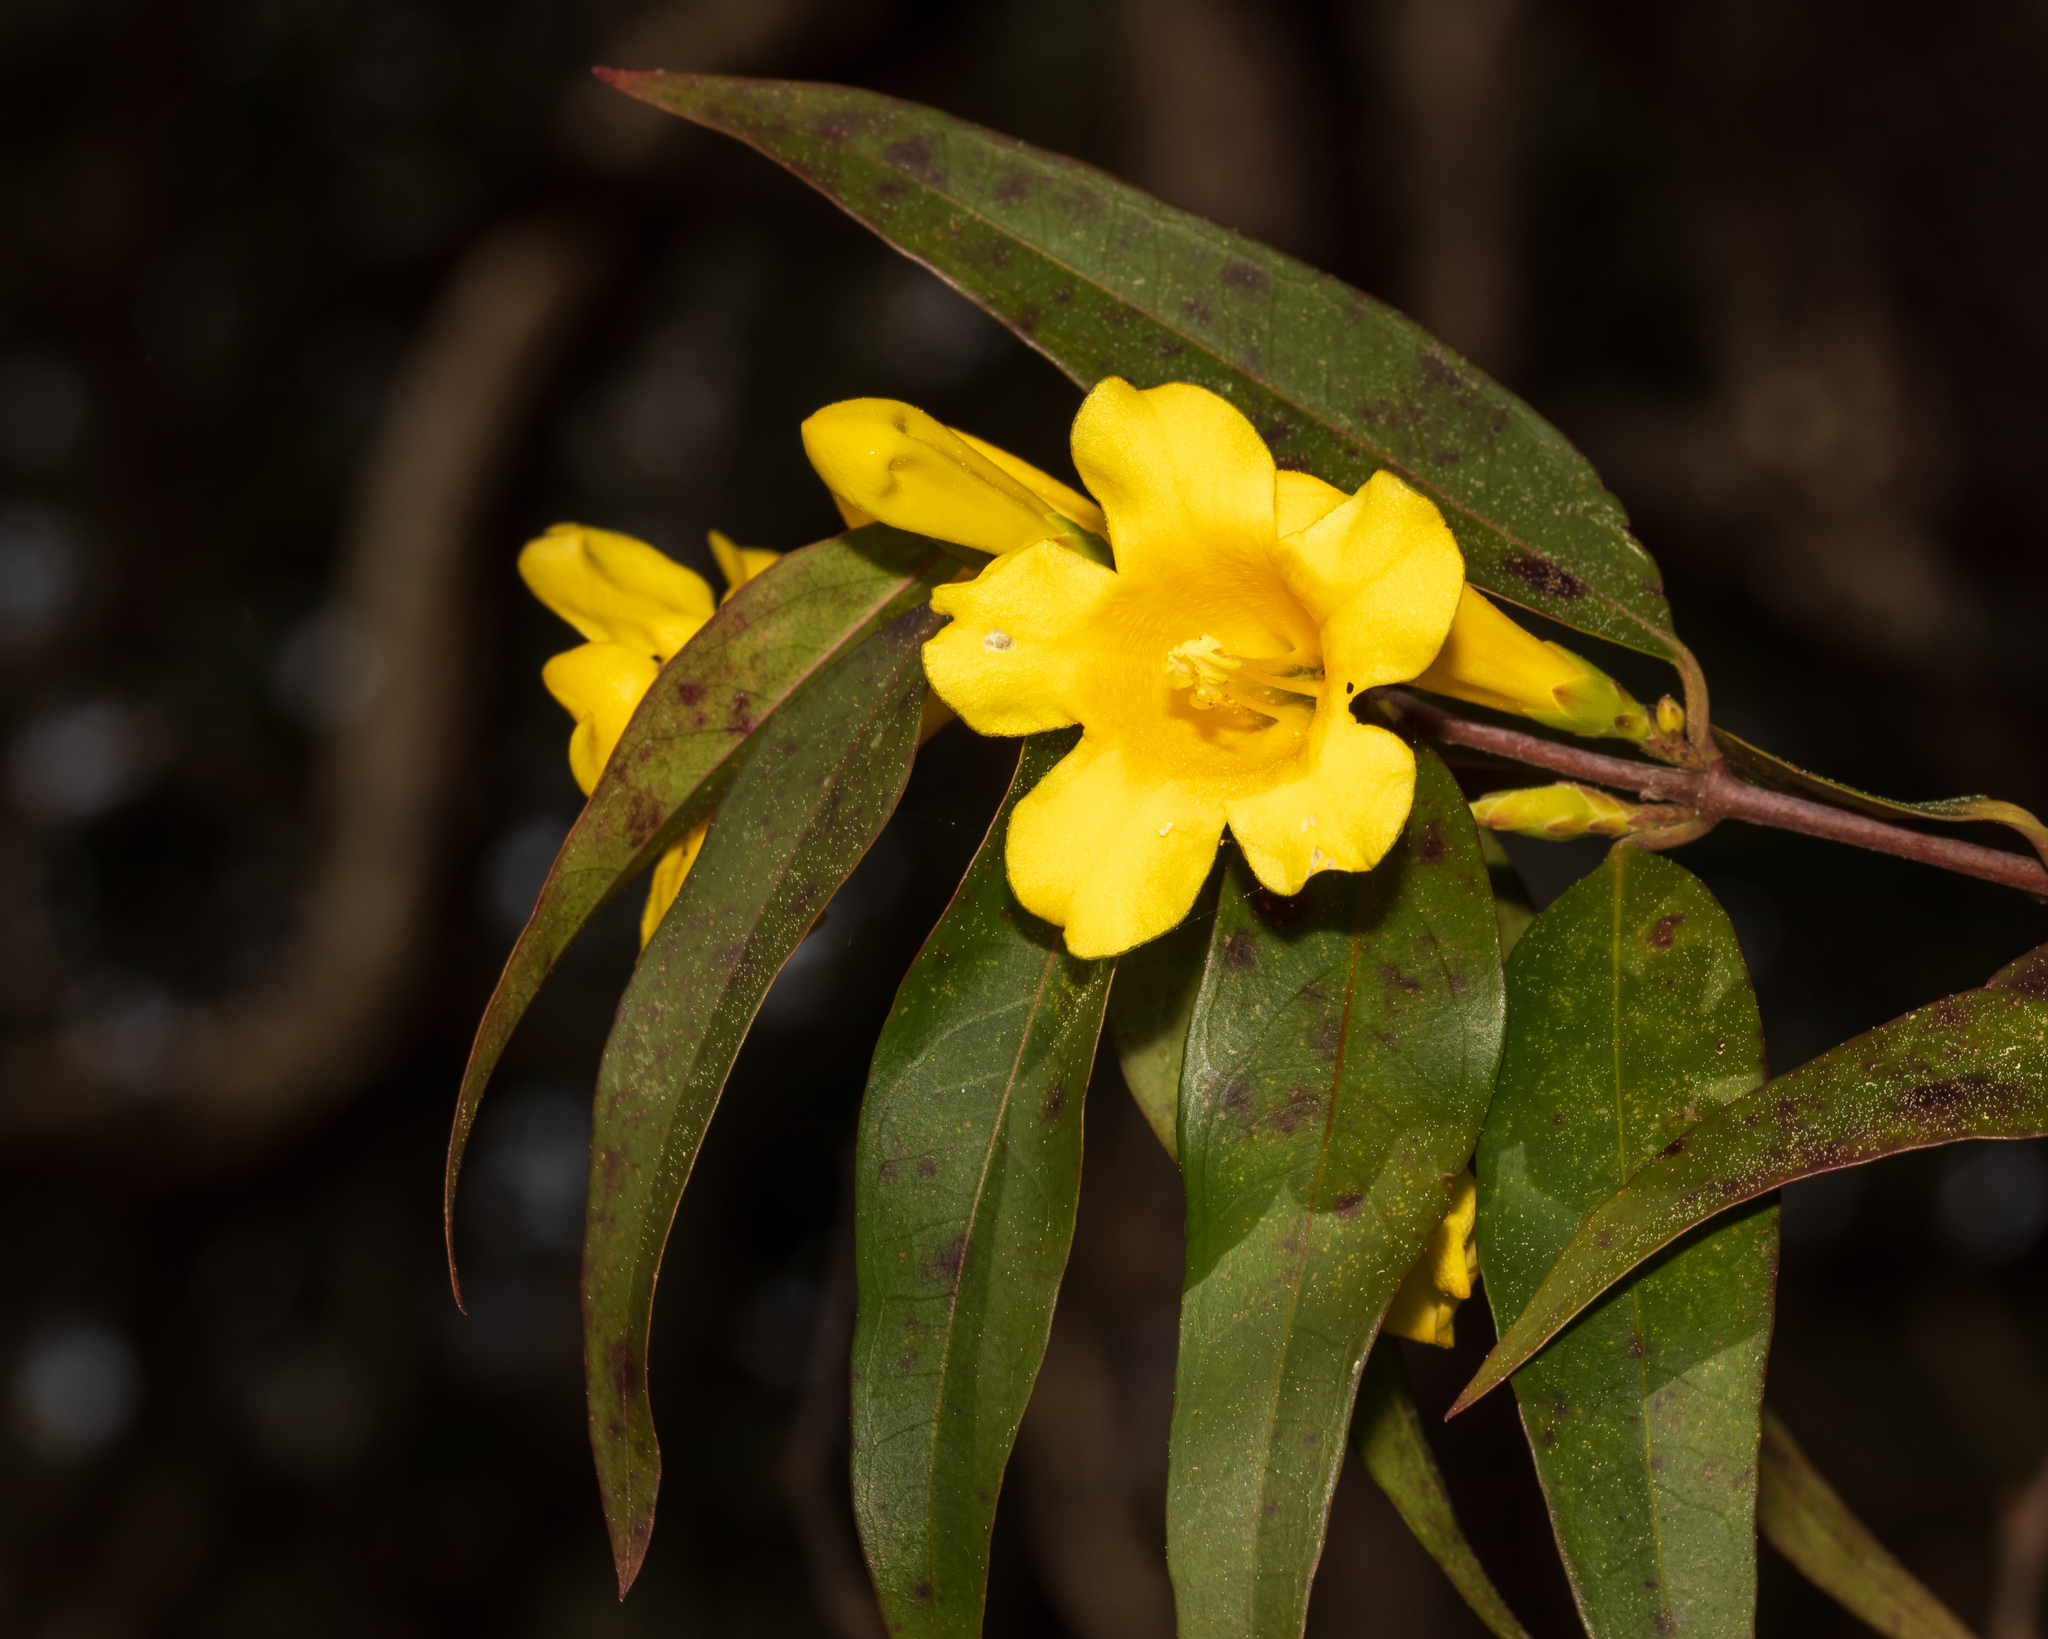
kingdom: Plantae
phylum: Tracheophyta
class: Magnoliopsida
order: Gentianales
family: Gelsemiaceae
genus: Gelsemium
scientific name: Gelsemium sempervirens
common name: Carolina-jasmine
